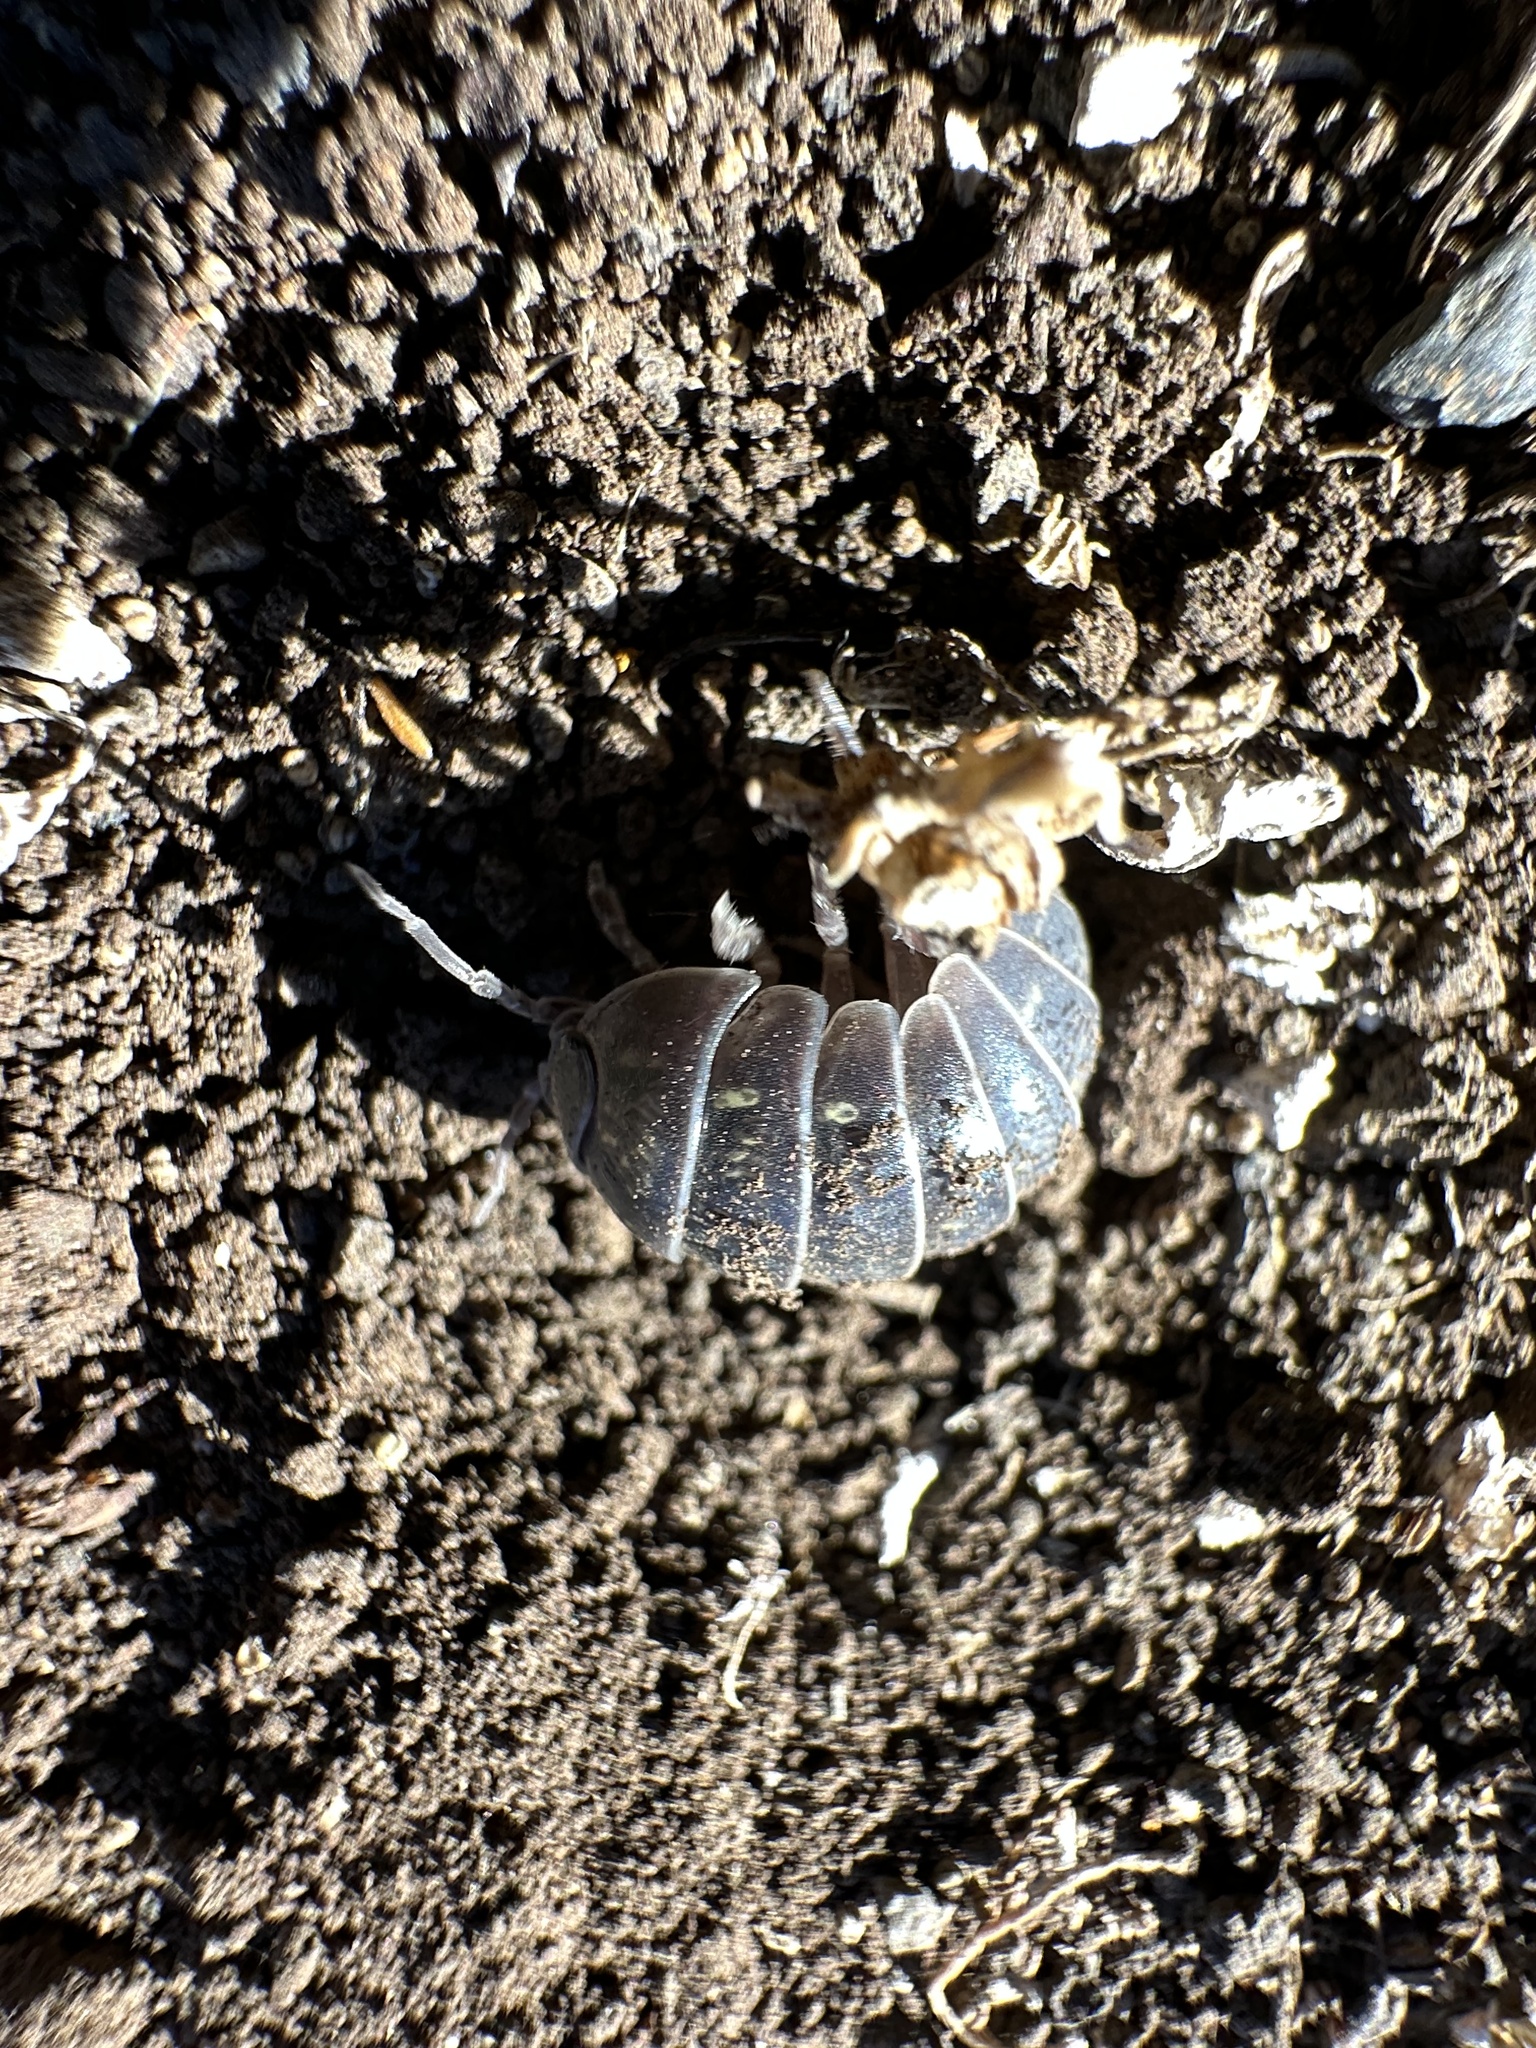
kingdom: Animalia
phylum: Arthropoda
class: Malacostraca
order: Isopoda
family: Armadillidiidae
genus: Armadillidium
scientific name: Armadillidium vulgare
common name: Common pill woodlouse
